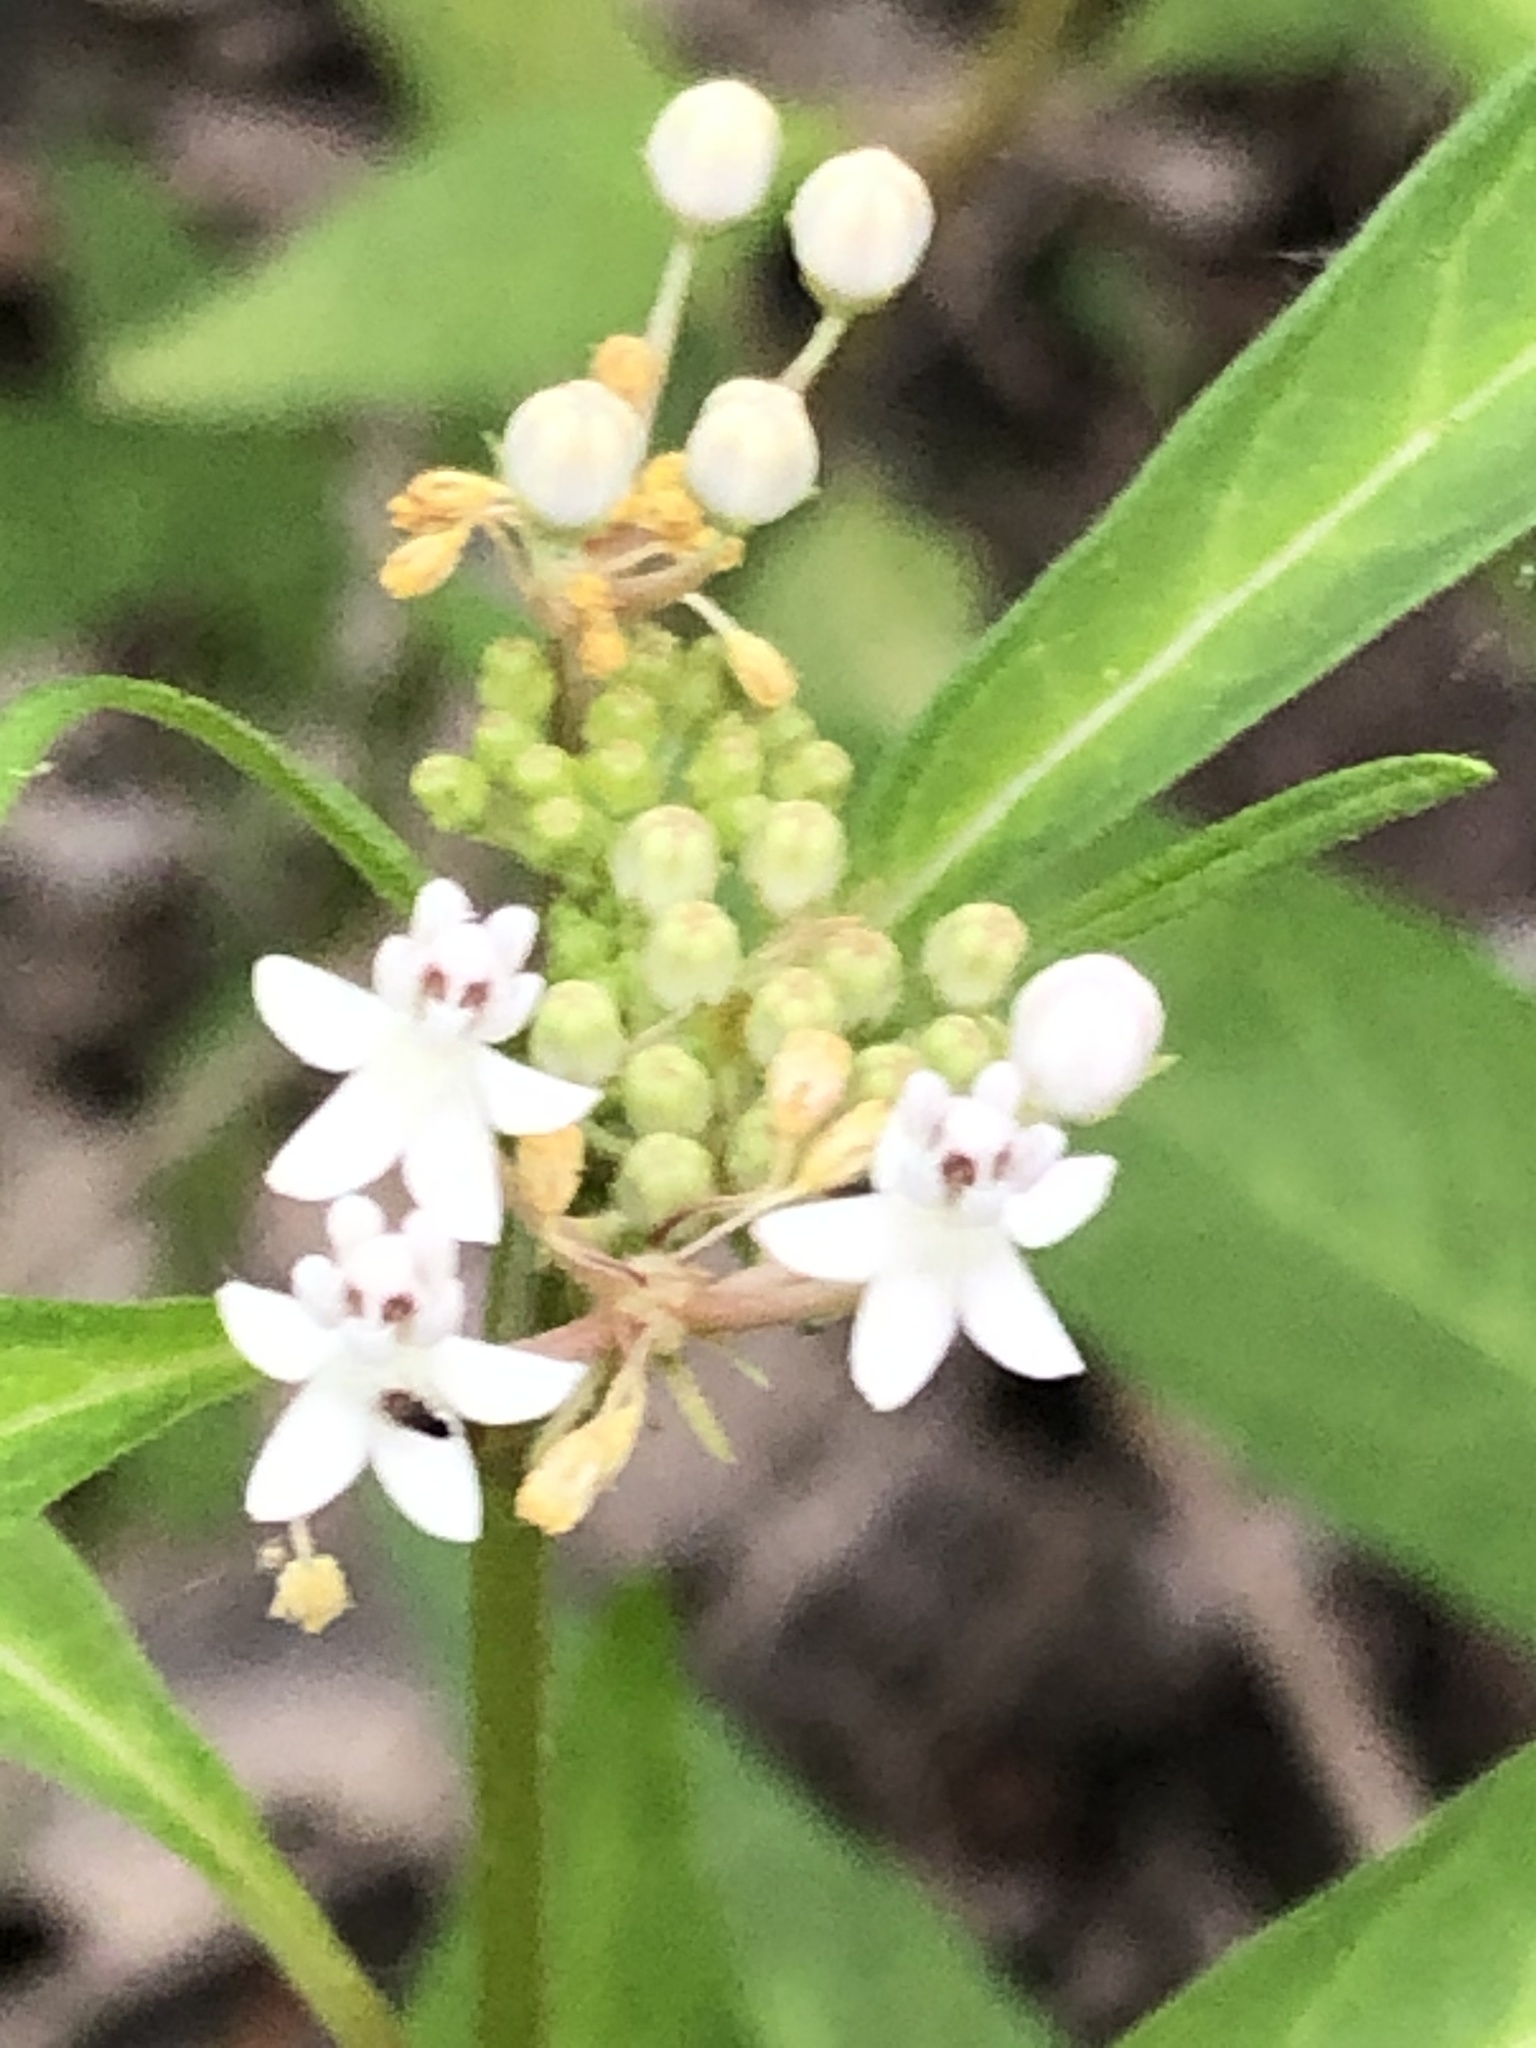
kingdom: Plantae
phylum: Tracheophyta
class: Magnoliopsida
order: Gentianales
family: Apocynaceae
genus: Asclepias
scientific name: Asclepias perennis
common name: Smooth-seed milkweed
